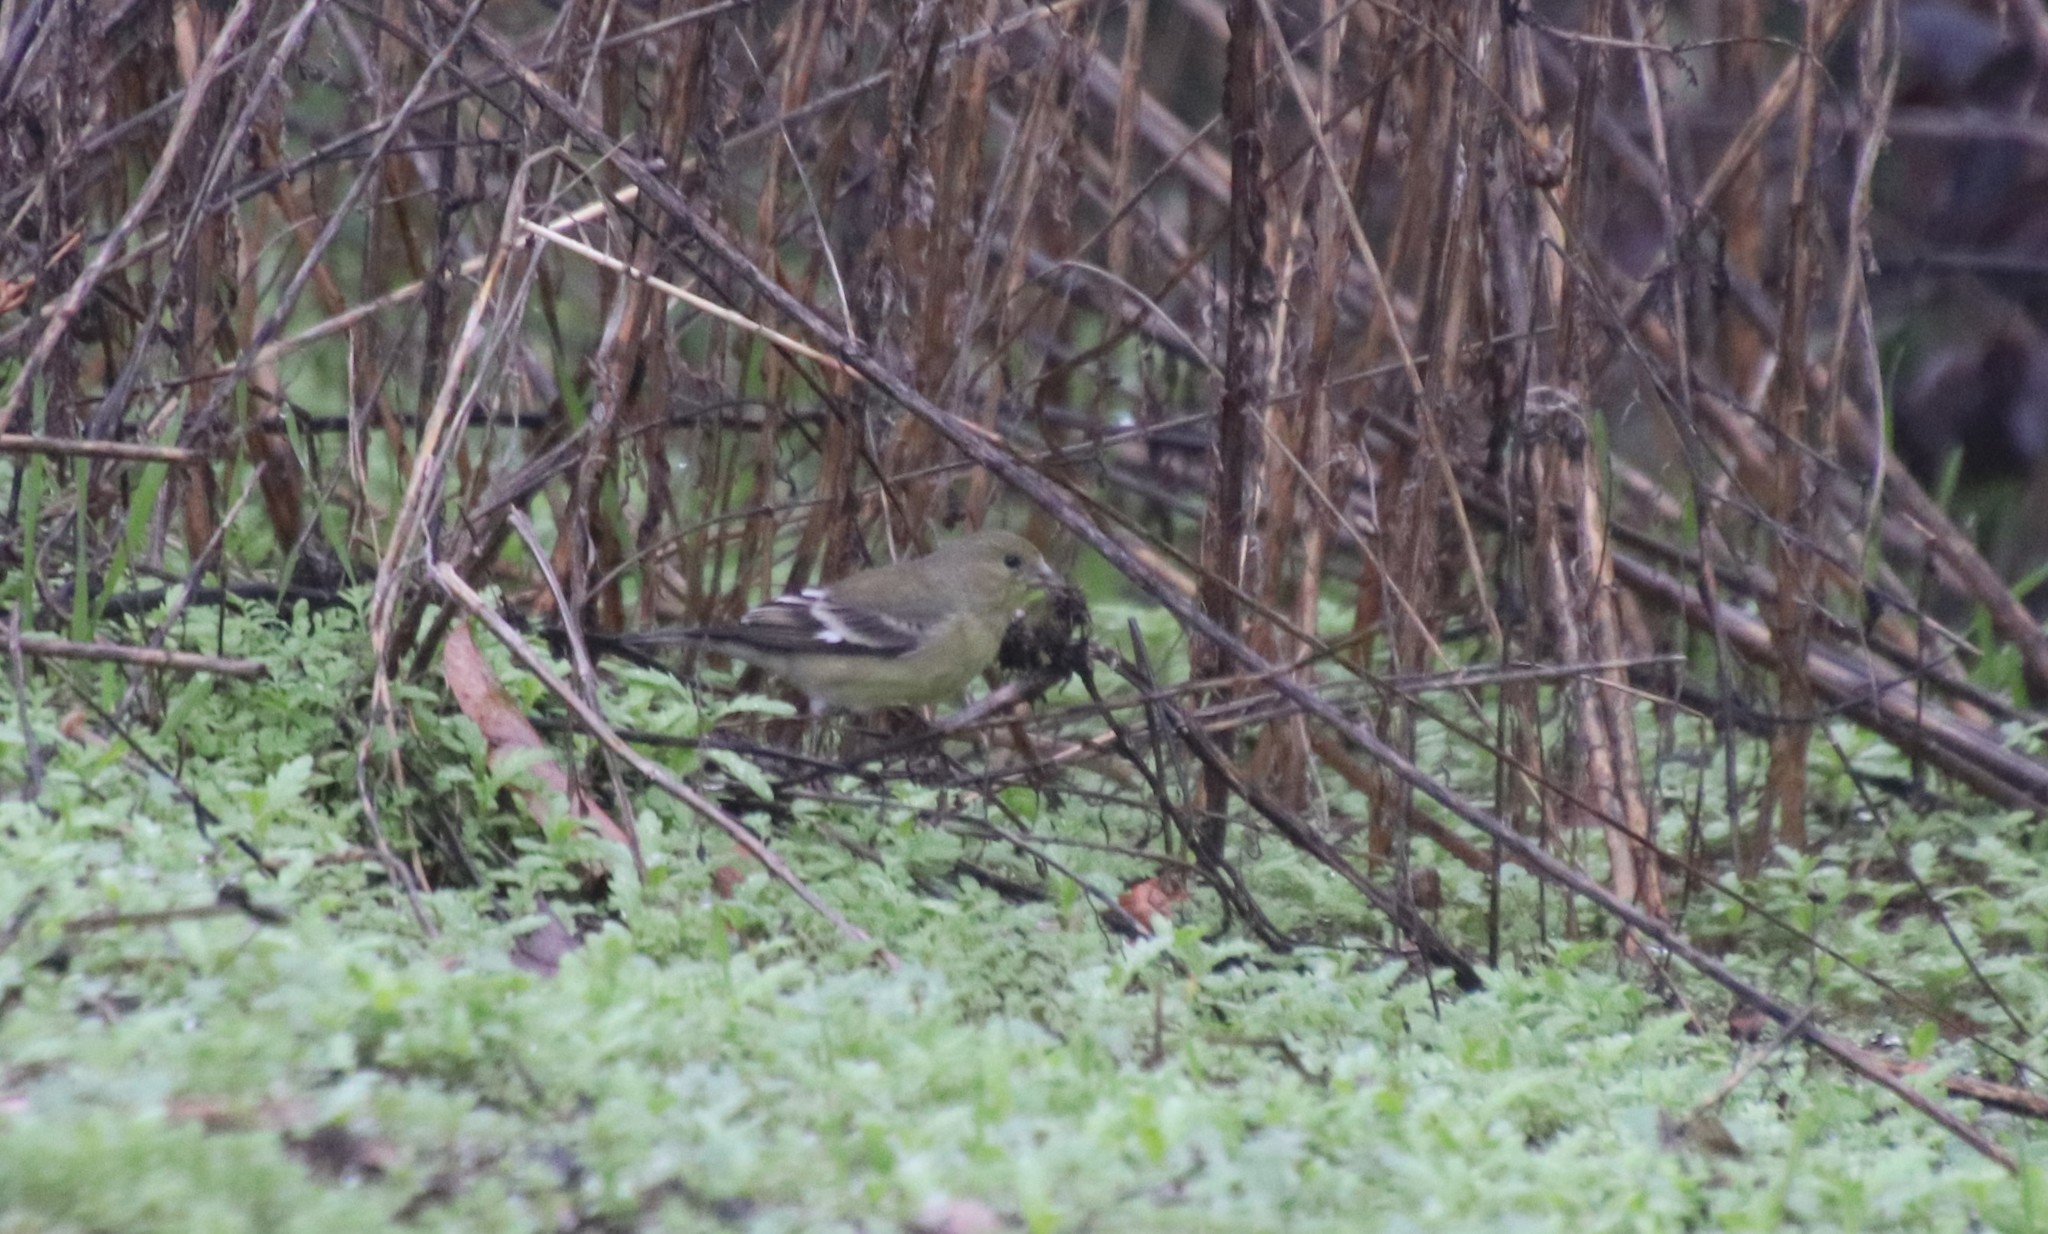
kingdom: Animalia
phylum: Chordata
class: Aves
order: Passeriformes
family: Fringillidae
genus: Spinus
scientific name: Spinus psaltria
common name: Lesser goldfinch
